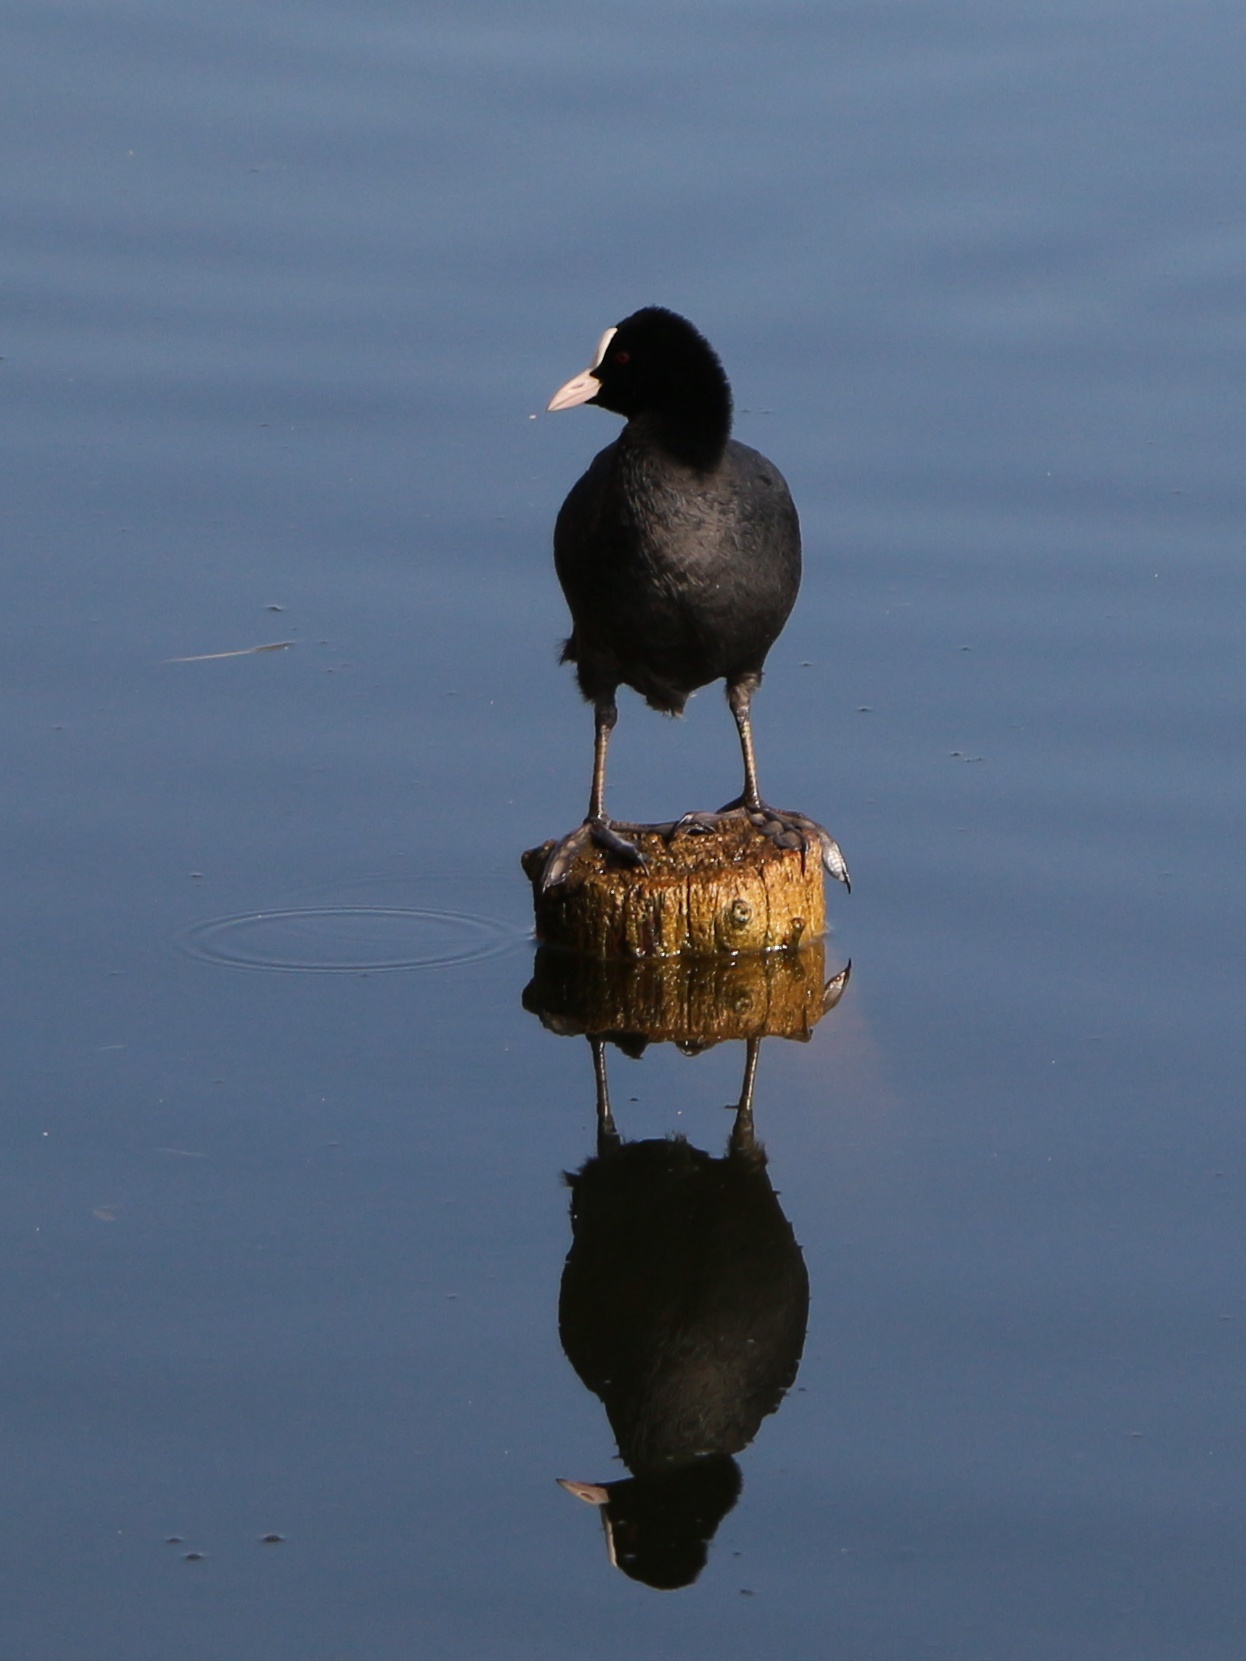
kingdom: Animalia
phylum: Chordata
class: Aves
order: Gruiformes
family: Rallidae
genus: Fulica
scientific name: Fulica atra
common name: Eurasian coot
